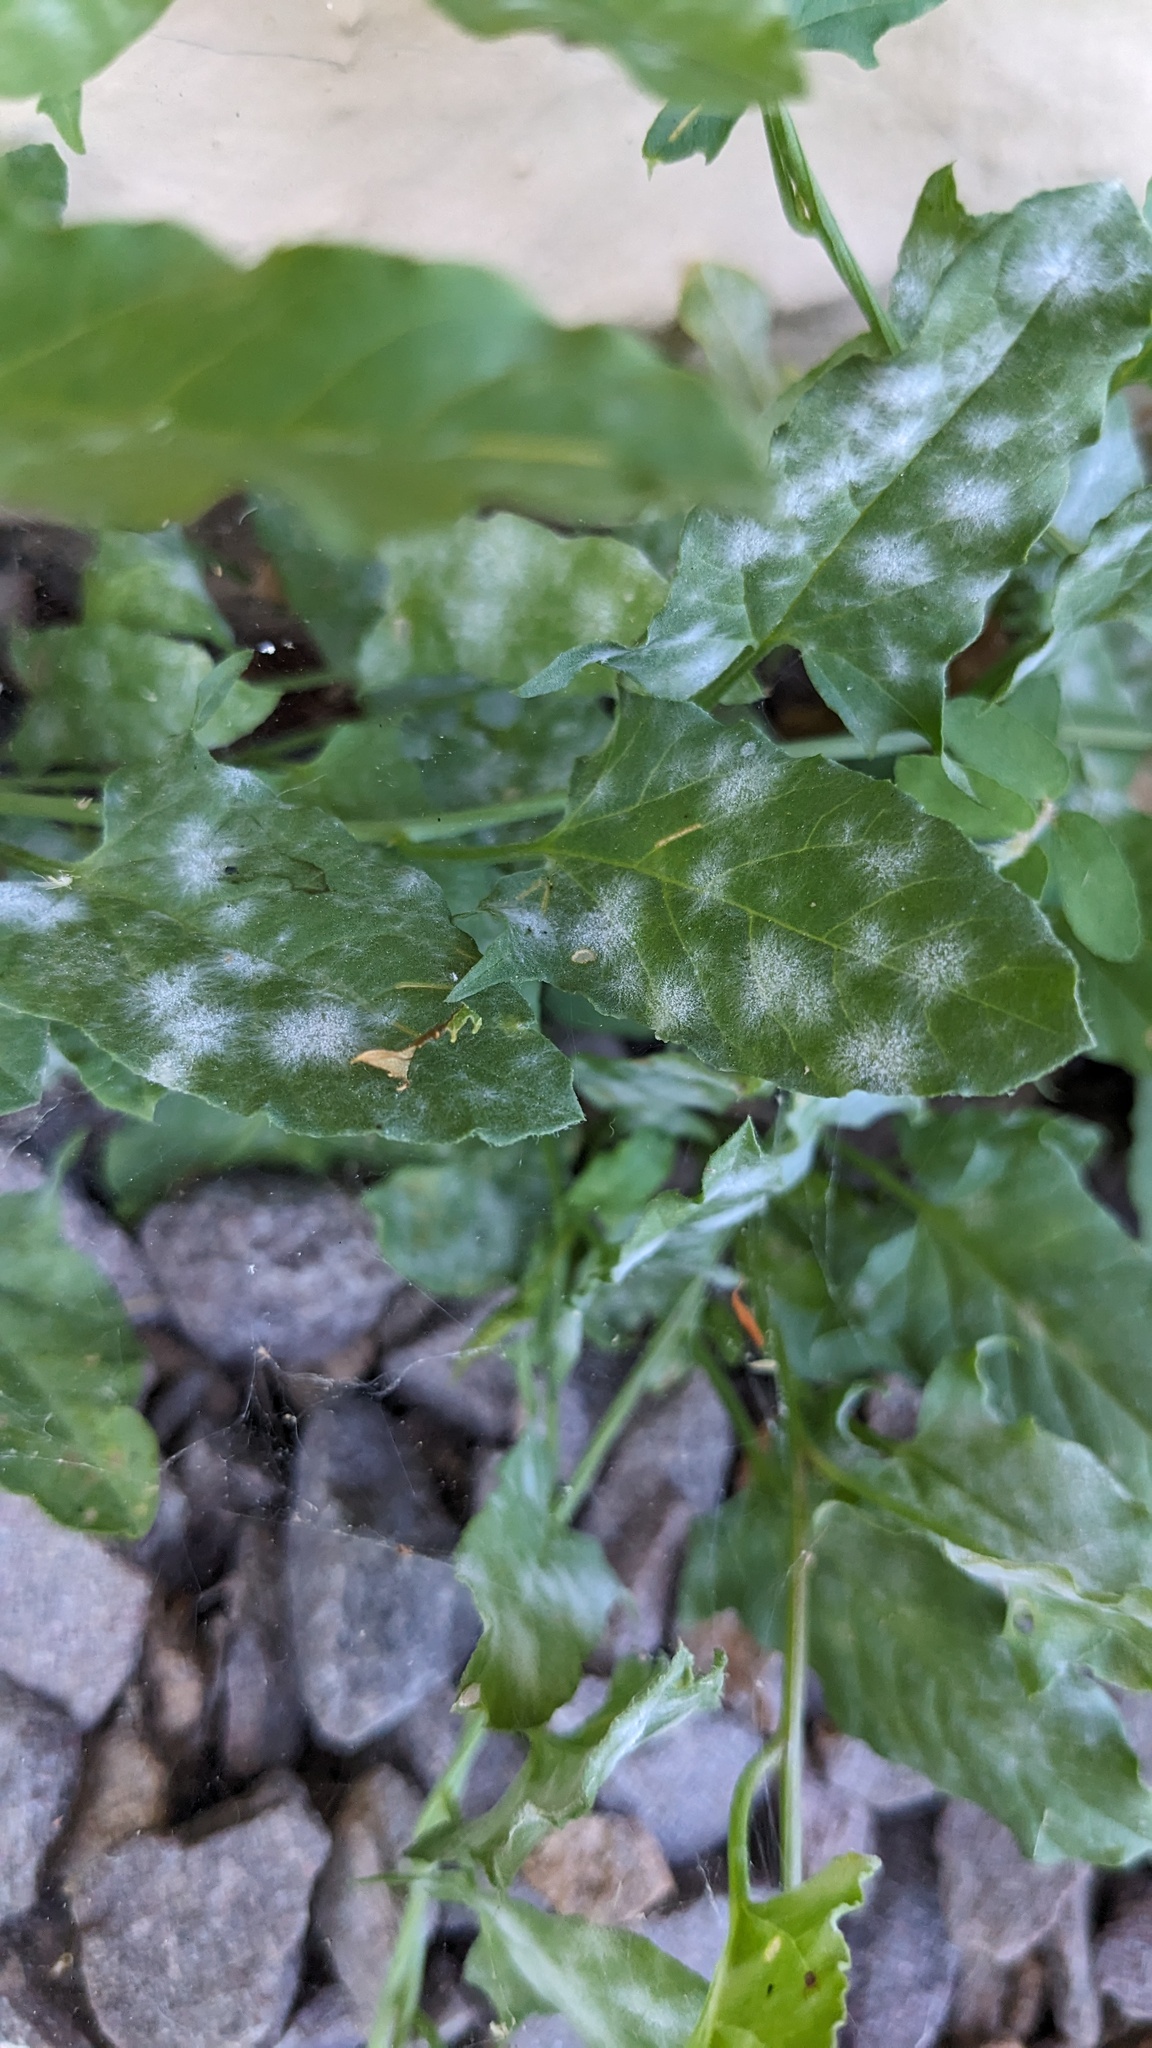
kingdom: Fungi
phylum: Ascomycota
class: Leotiomycetes
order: Helotiales
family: Erysiphaceae
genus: Erysiphe
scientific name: Erysiphe convolvuli
